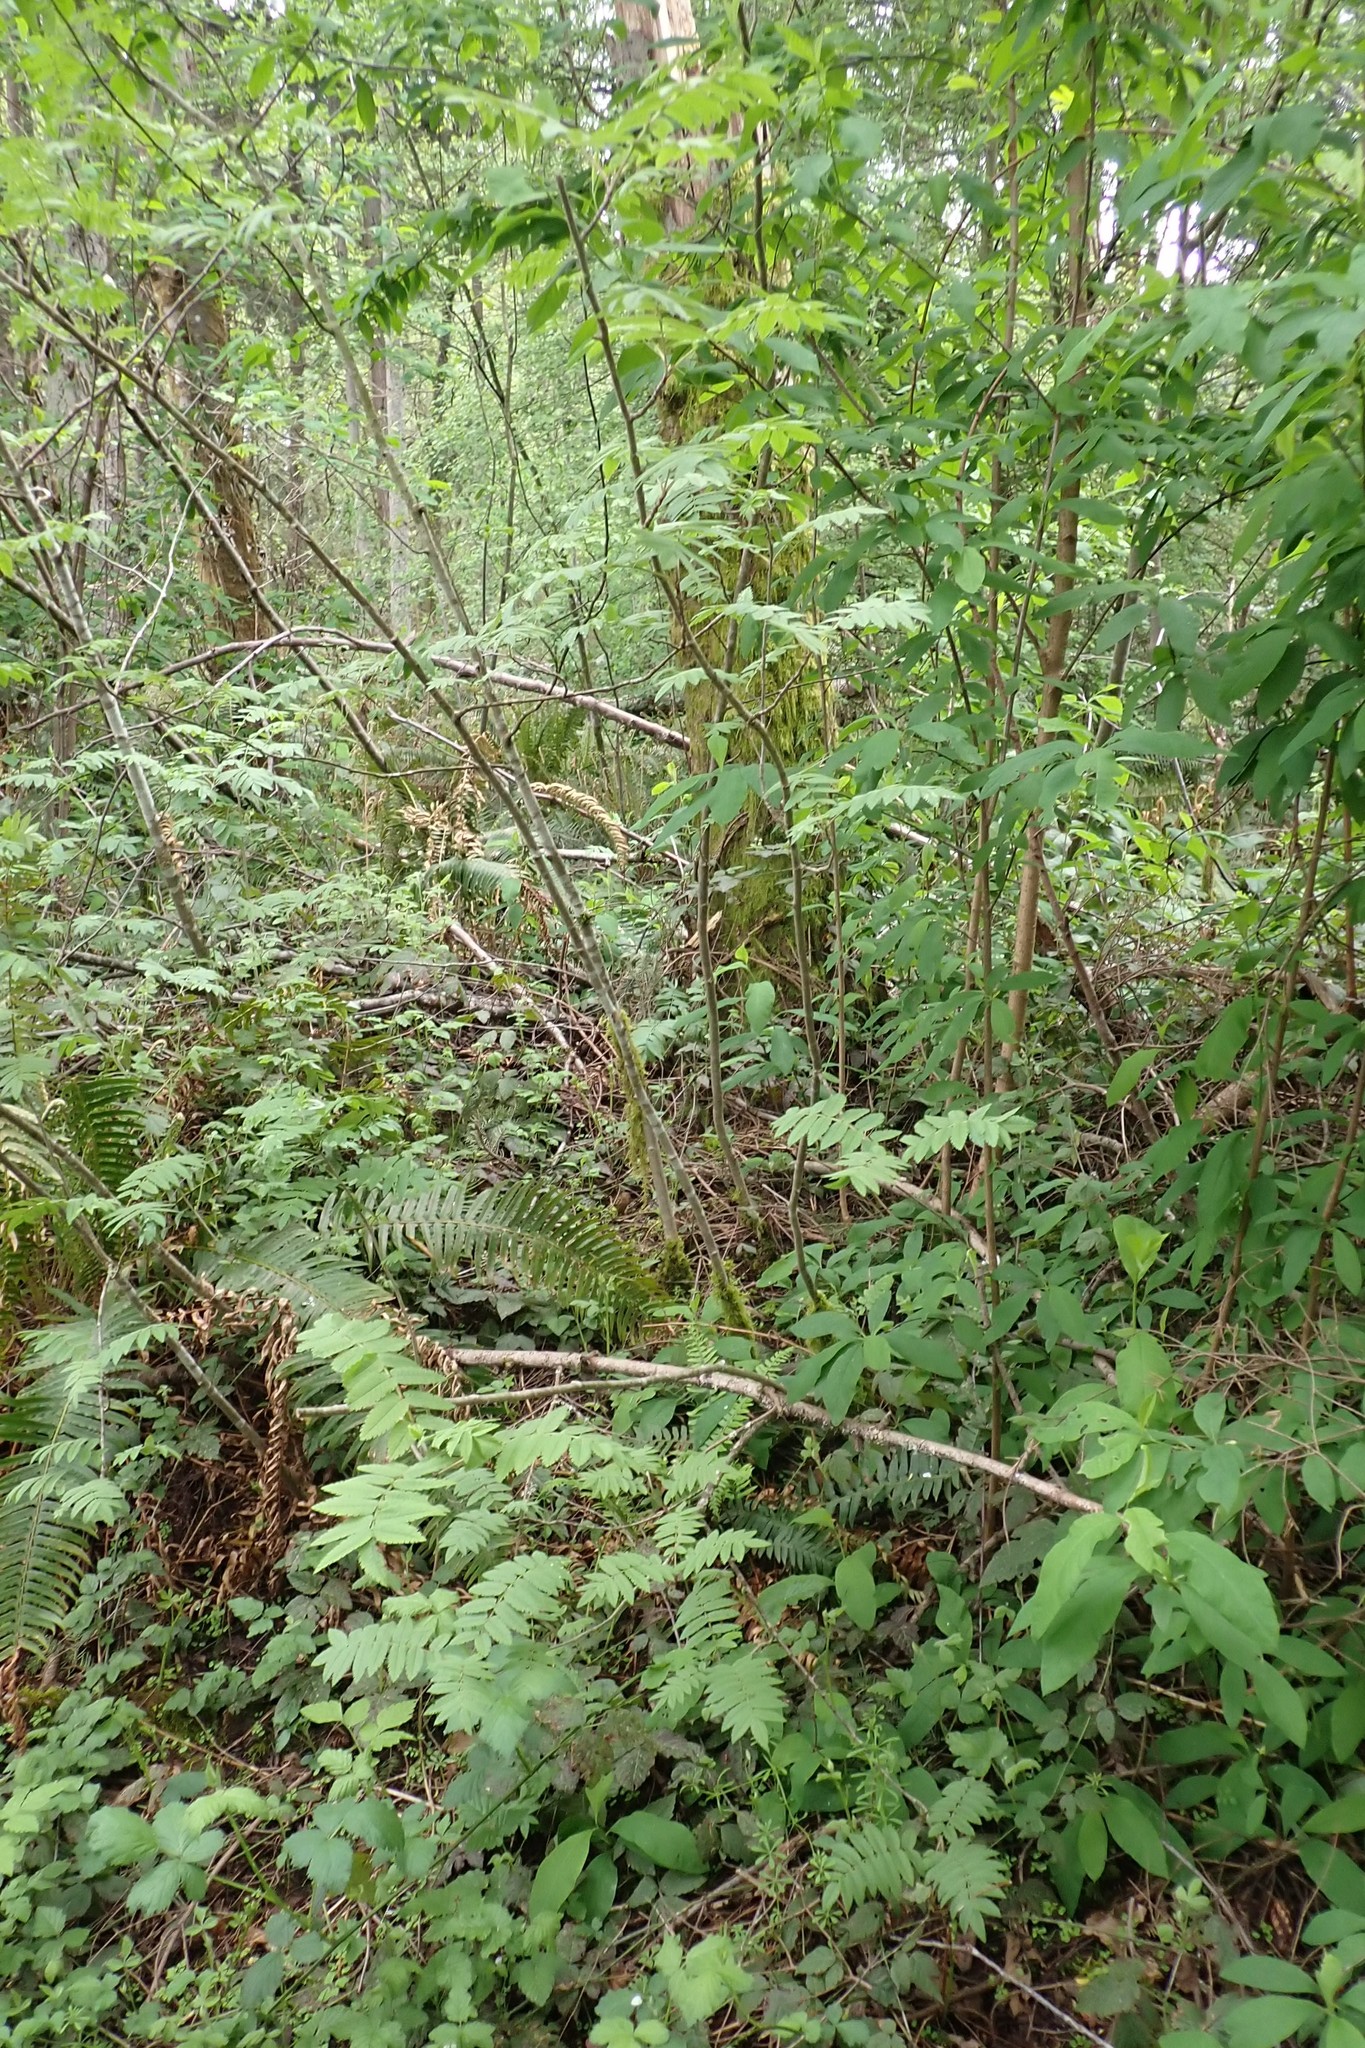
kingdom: Plantae
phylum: Tracheophyta
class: Magnoliopsida
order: Rosales
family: Rosaceae
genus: Sorbus
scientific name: Sorbus aucuparia
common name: Rowan
